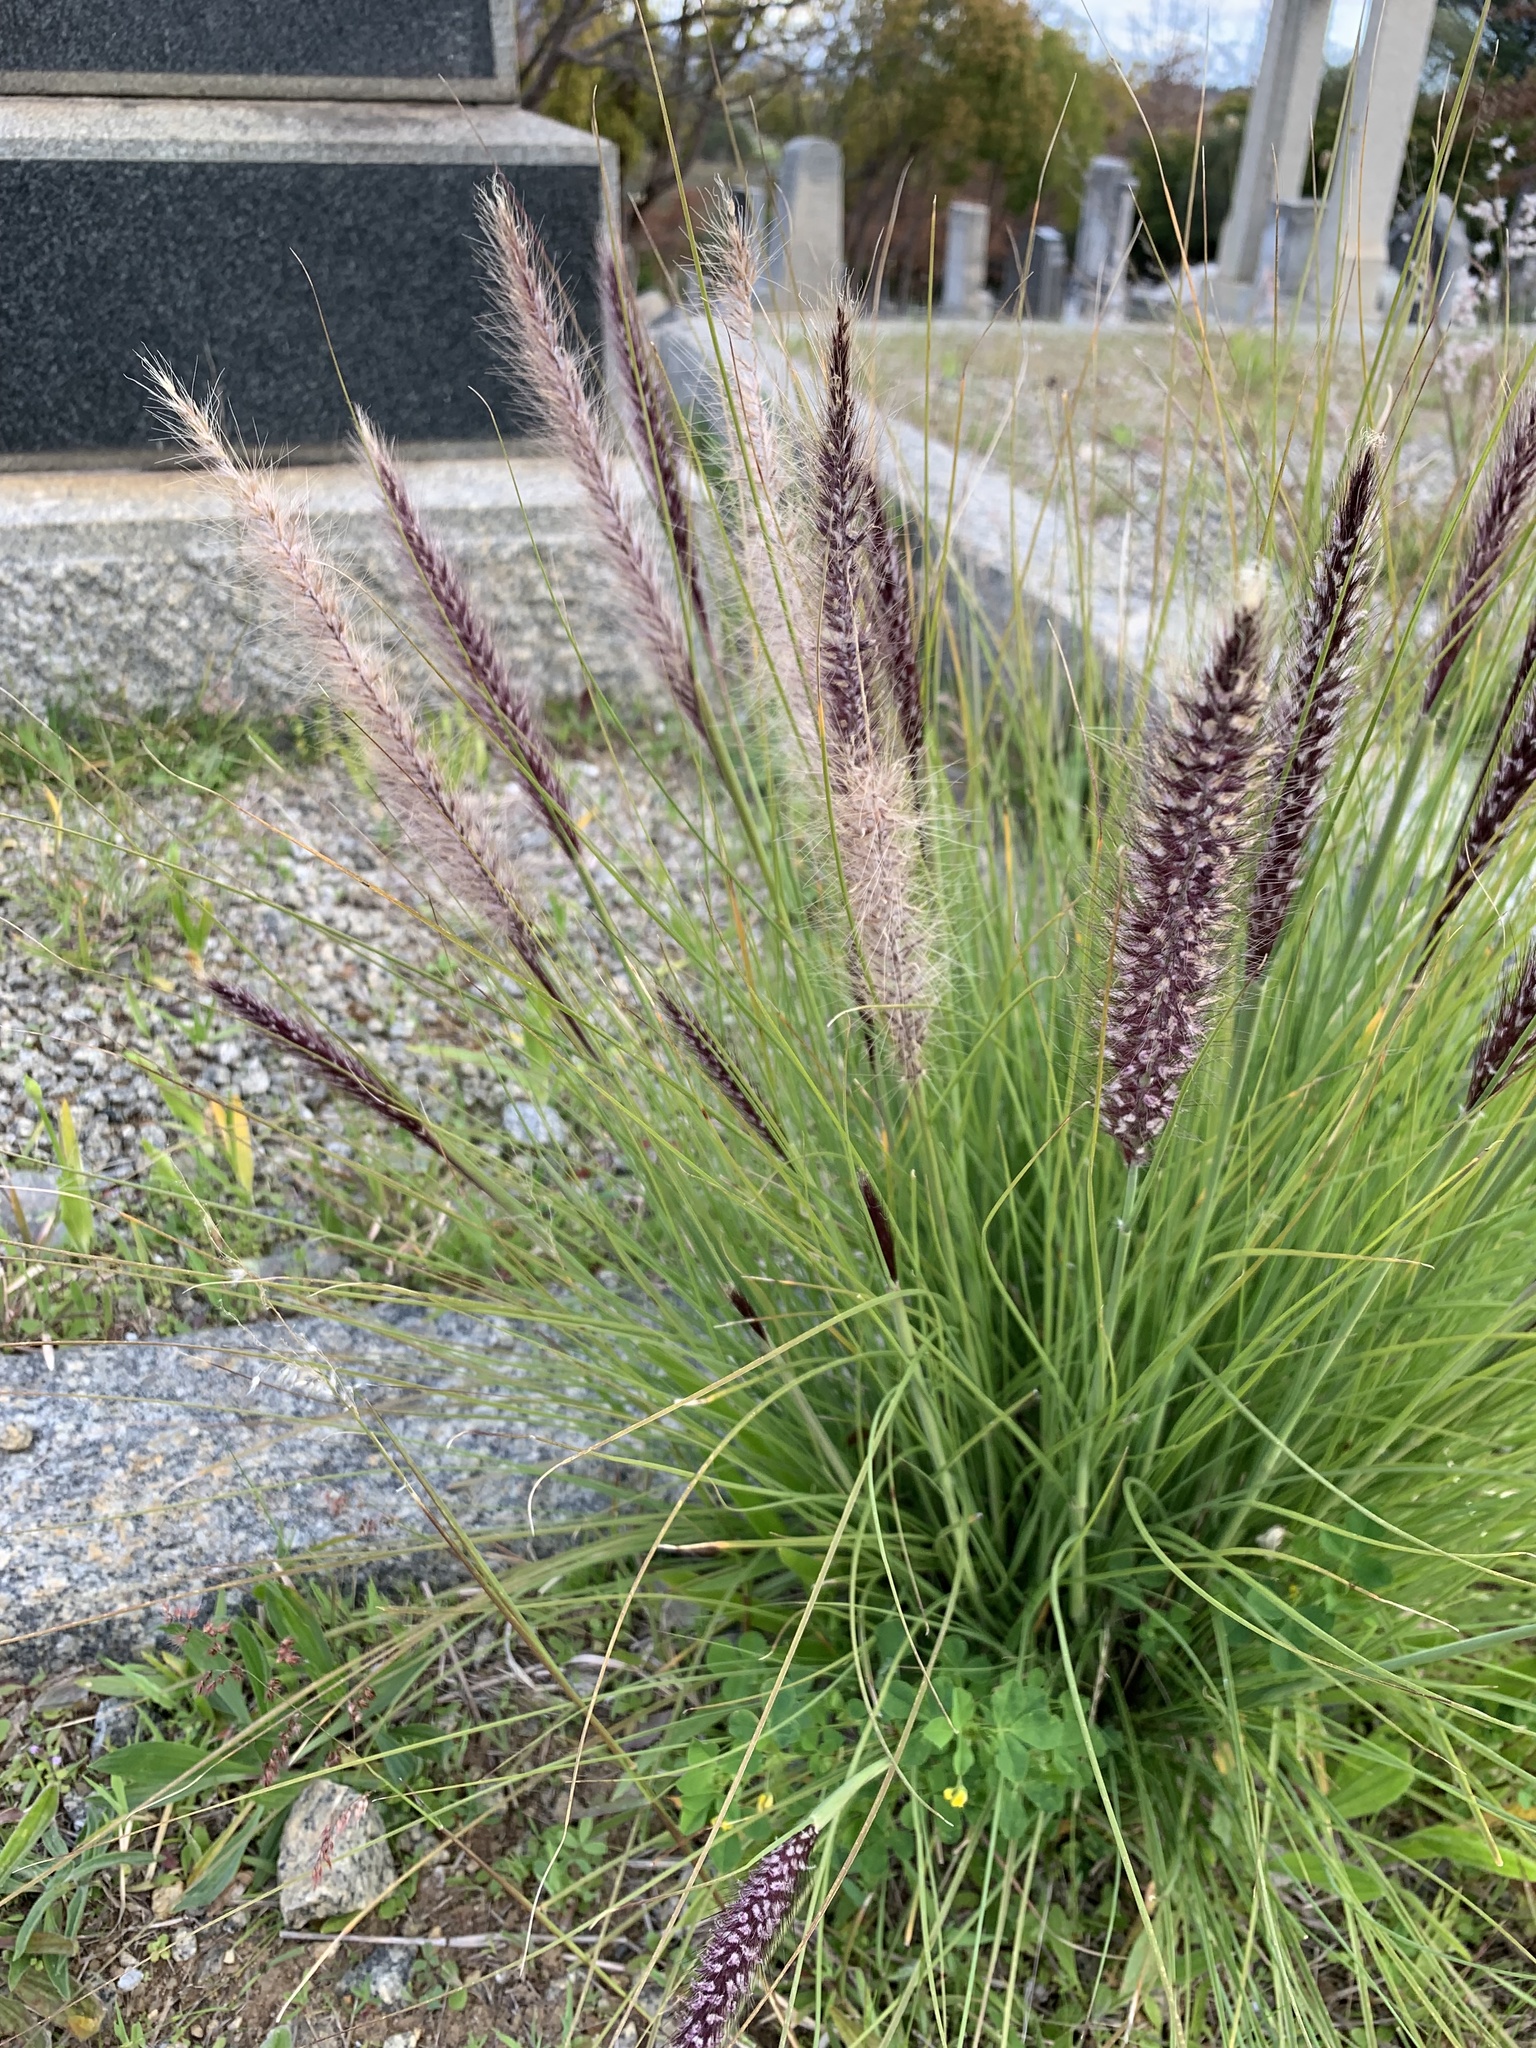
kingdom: Plantae
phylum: Tracheophyta
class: Liliopsida
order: Poales
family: Poaceae
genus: Cenchrus
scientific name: Cenchrus setaceus
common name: Crimson fountaingrass
